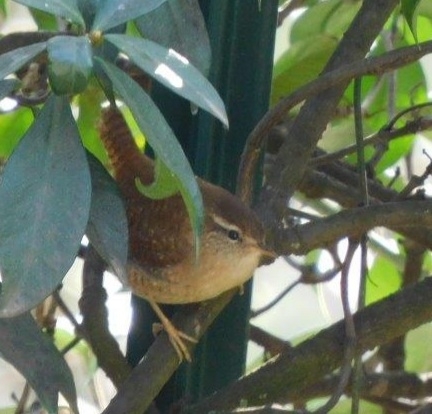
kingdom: Animalia
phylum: Chordata
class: Aves
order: Passeriformes
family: Troglodytidae
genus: Troglodytes
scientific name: Troglodytes troglodytes
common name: Eurasian wren
